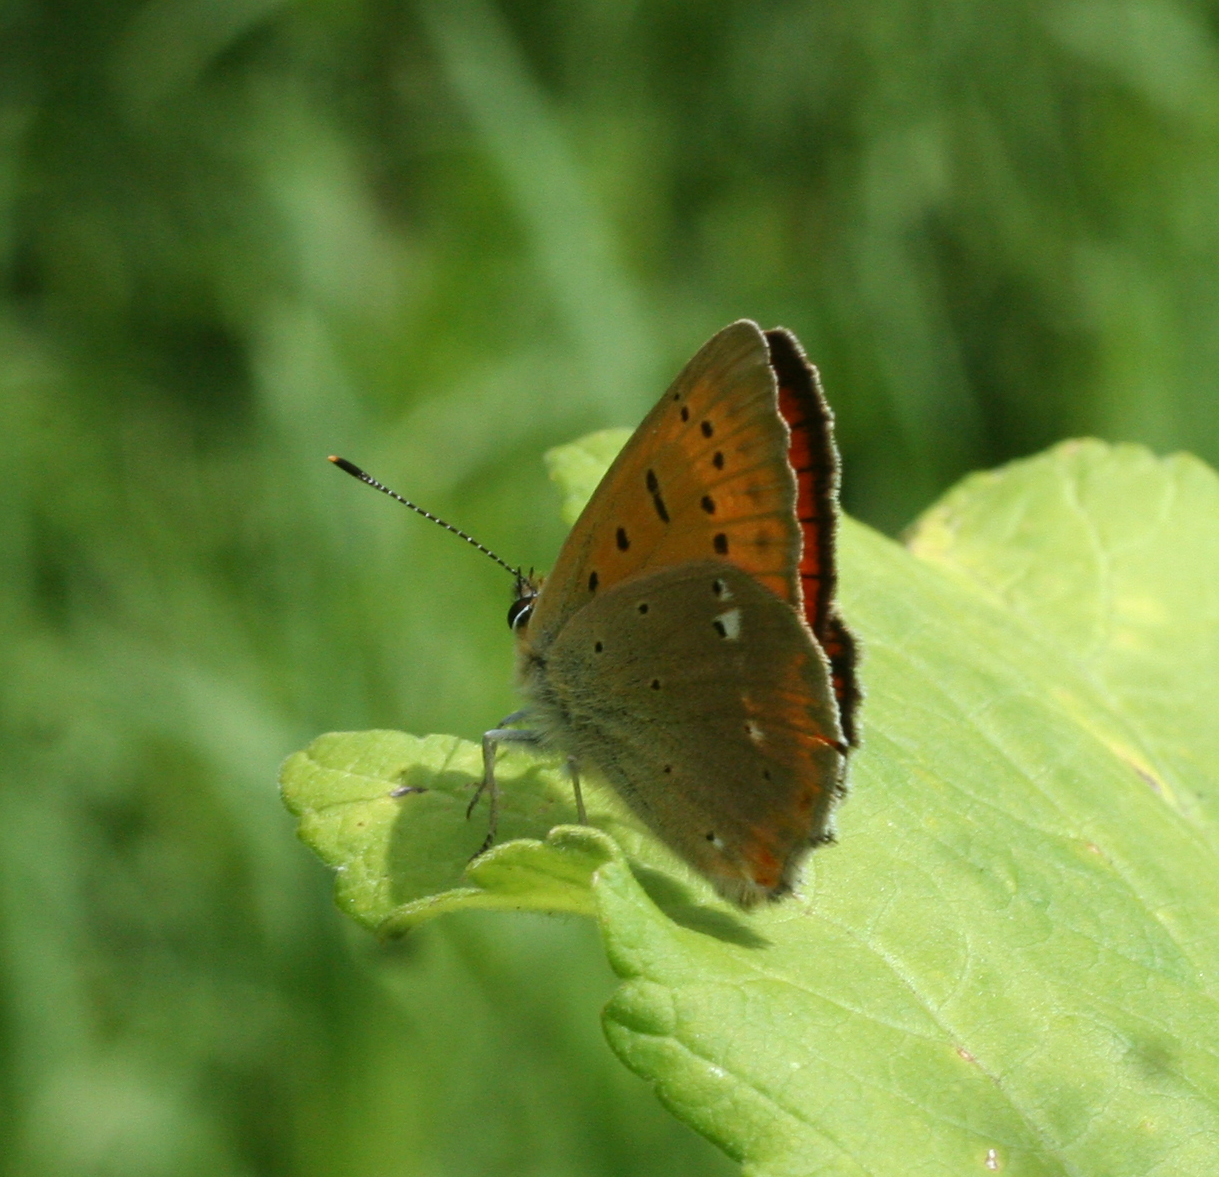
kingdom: Animalia
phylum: Arthropoda
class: Insecta
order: Lepidoptera
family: Lycaenidae
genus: Lycaena
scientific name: Lycaena virgaureae
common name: Scarce copper
